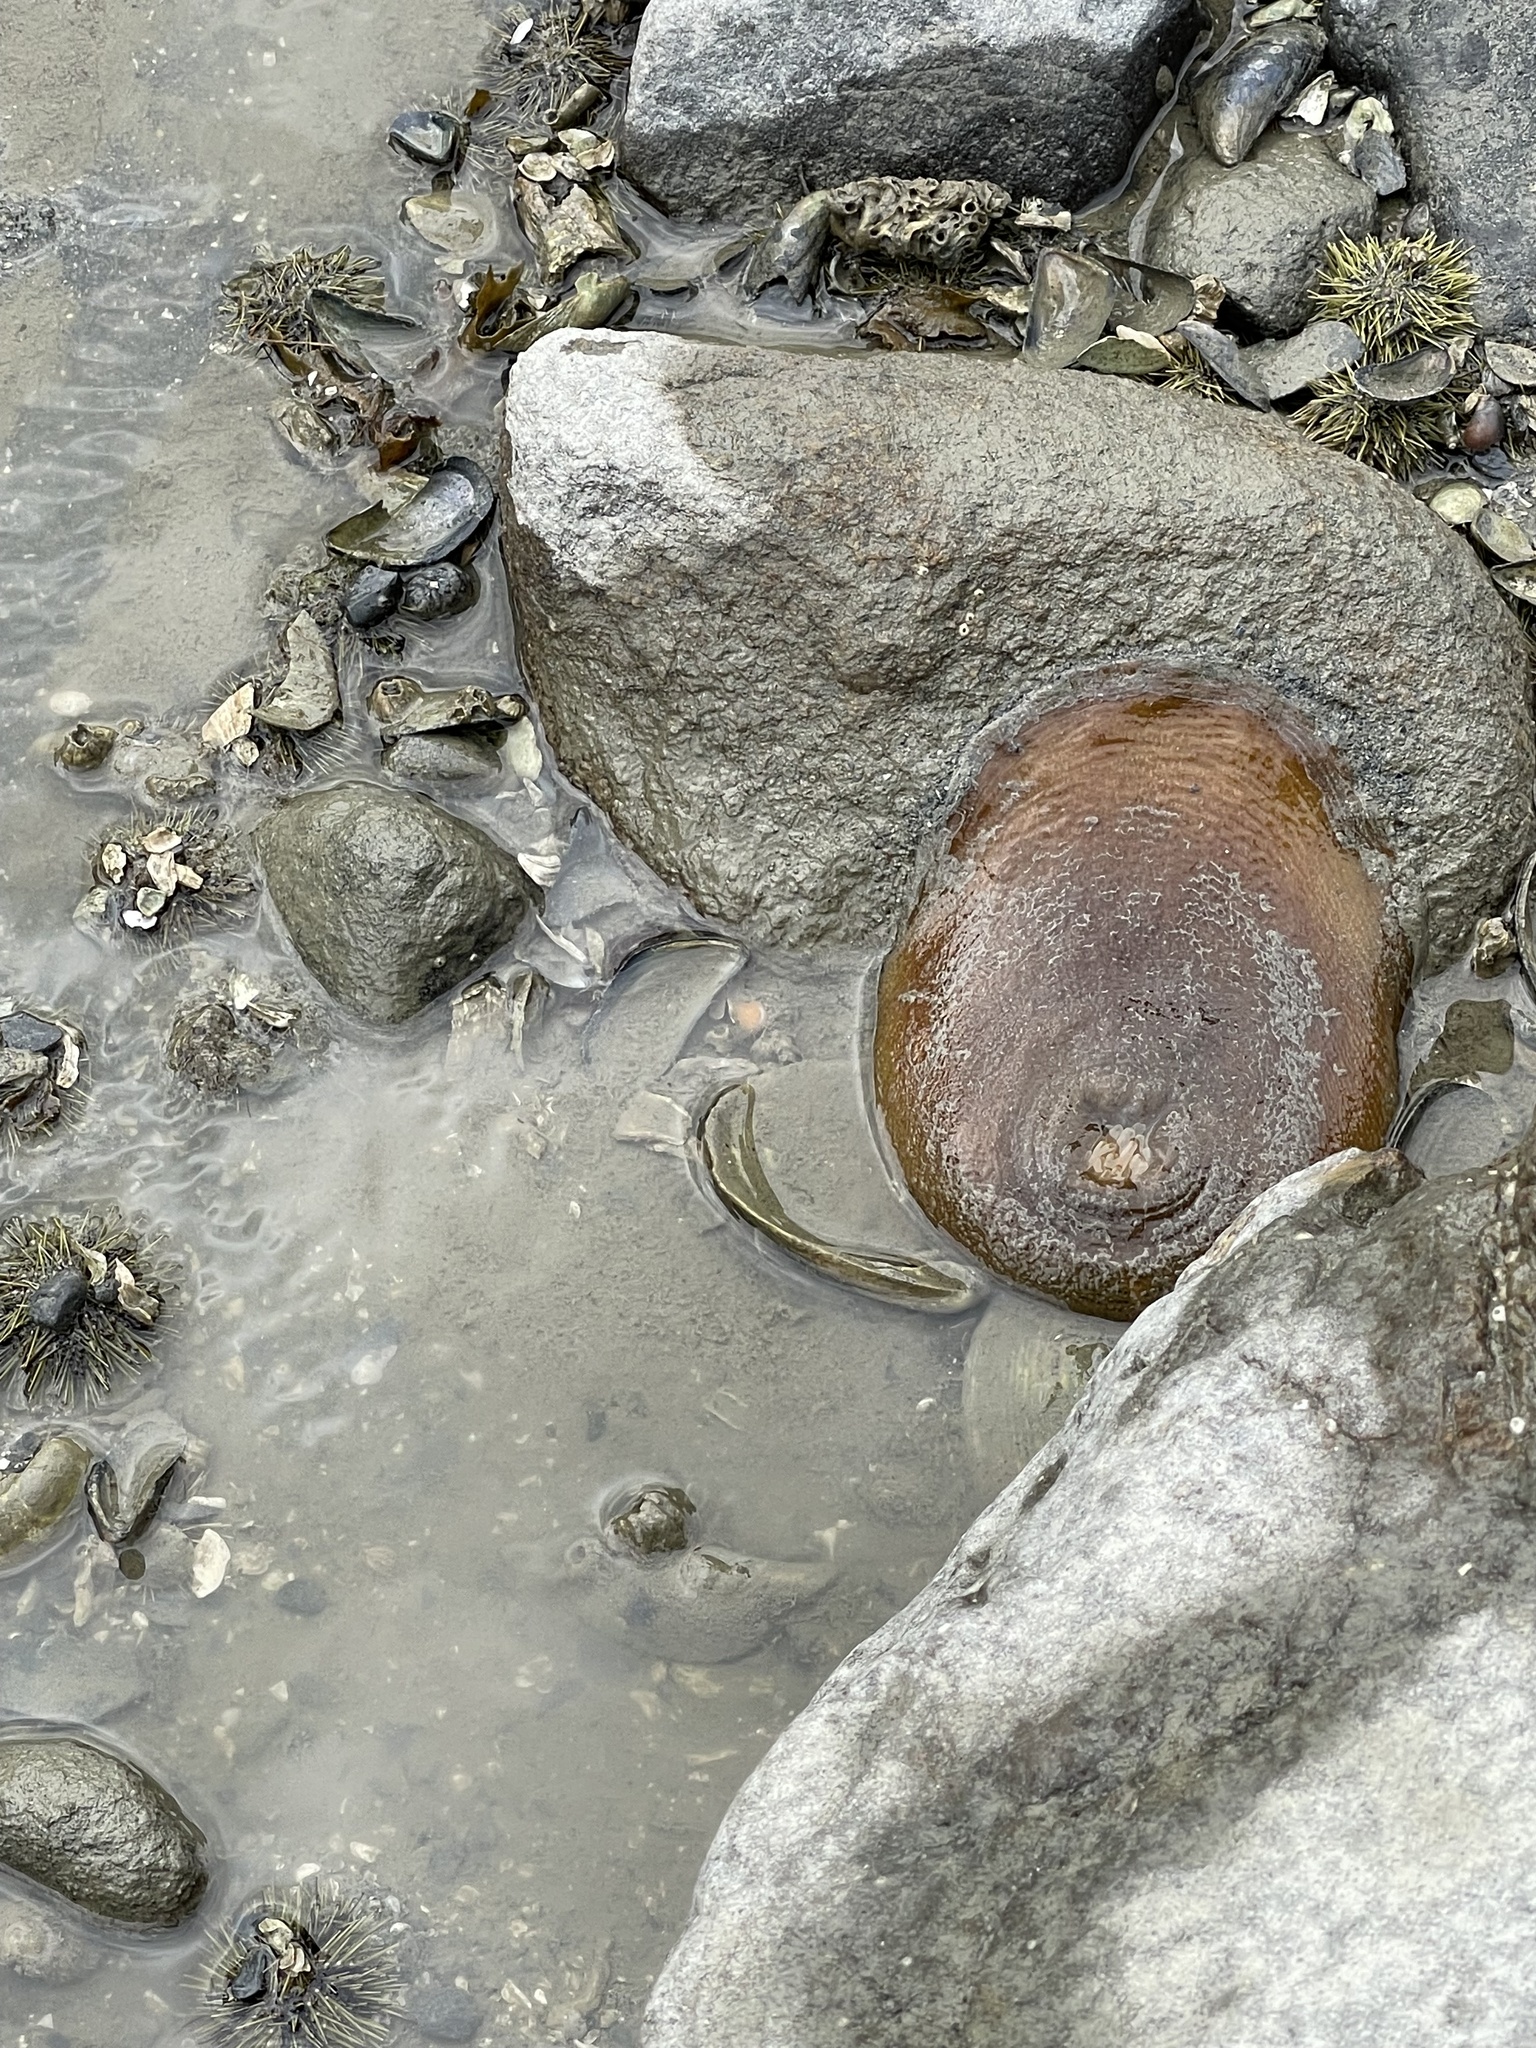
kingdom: Animalia
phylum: Cnidaria
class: Anthozoa
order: Actiniaria
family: Actiniidae
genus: Urticina
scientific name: Urticina grebelnyi
